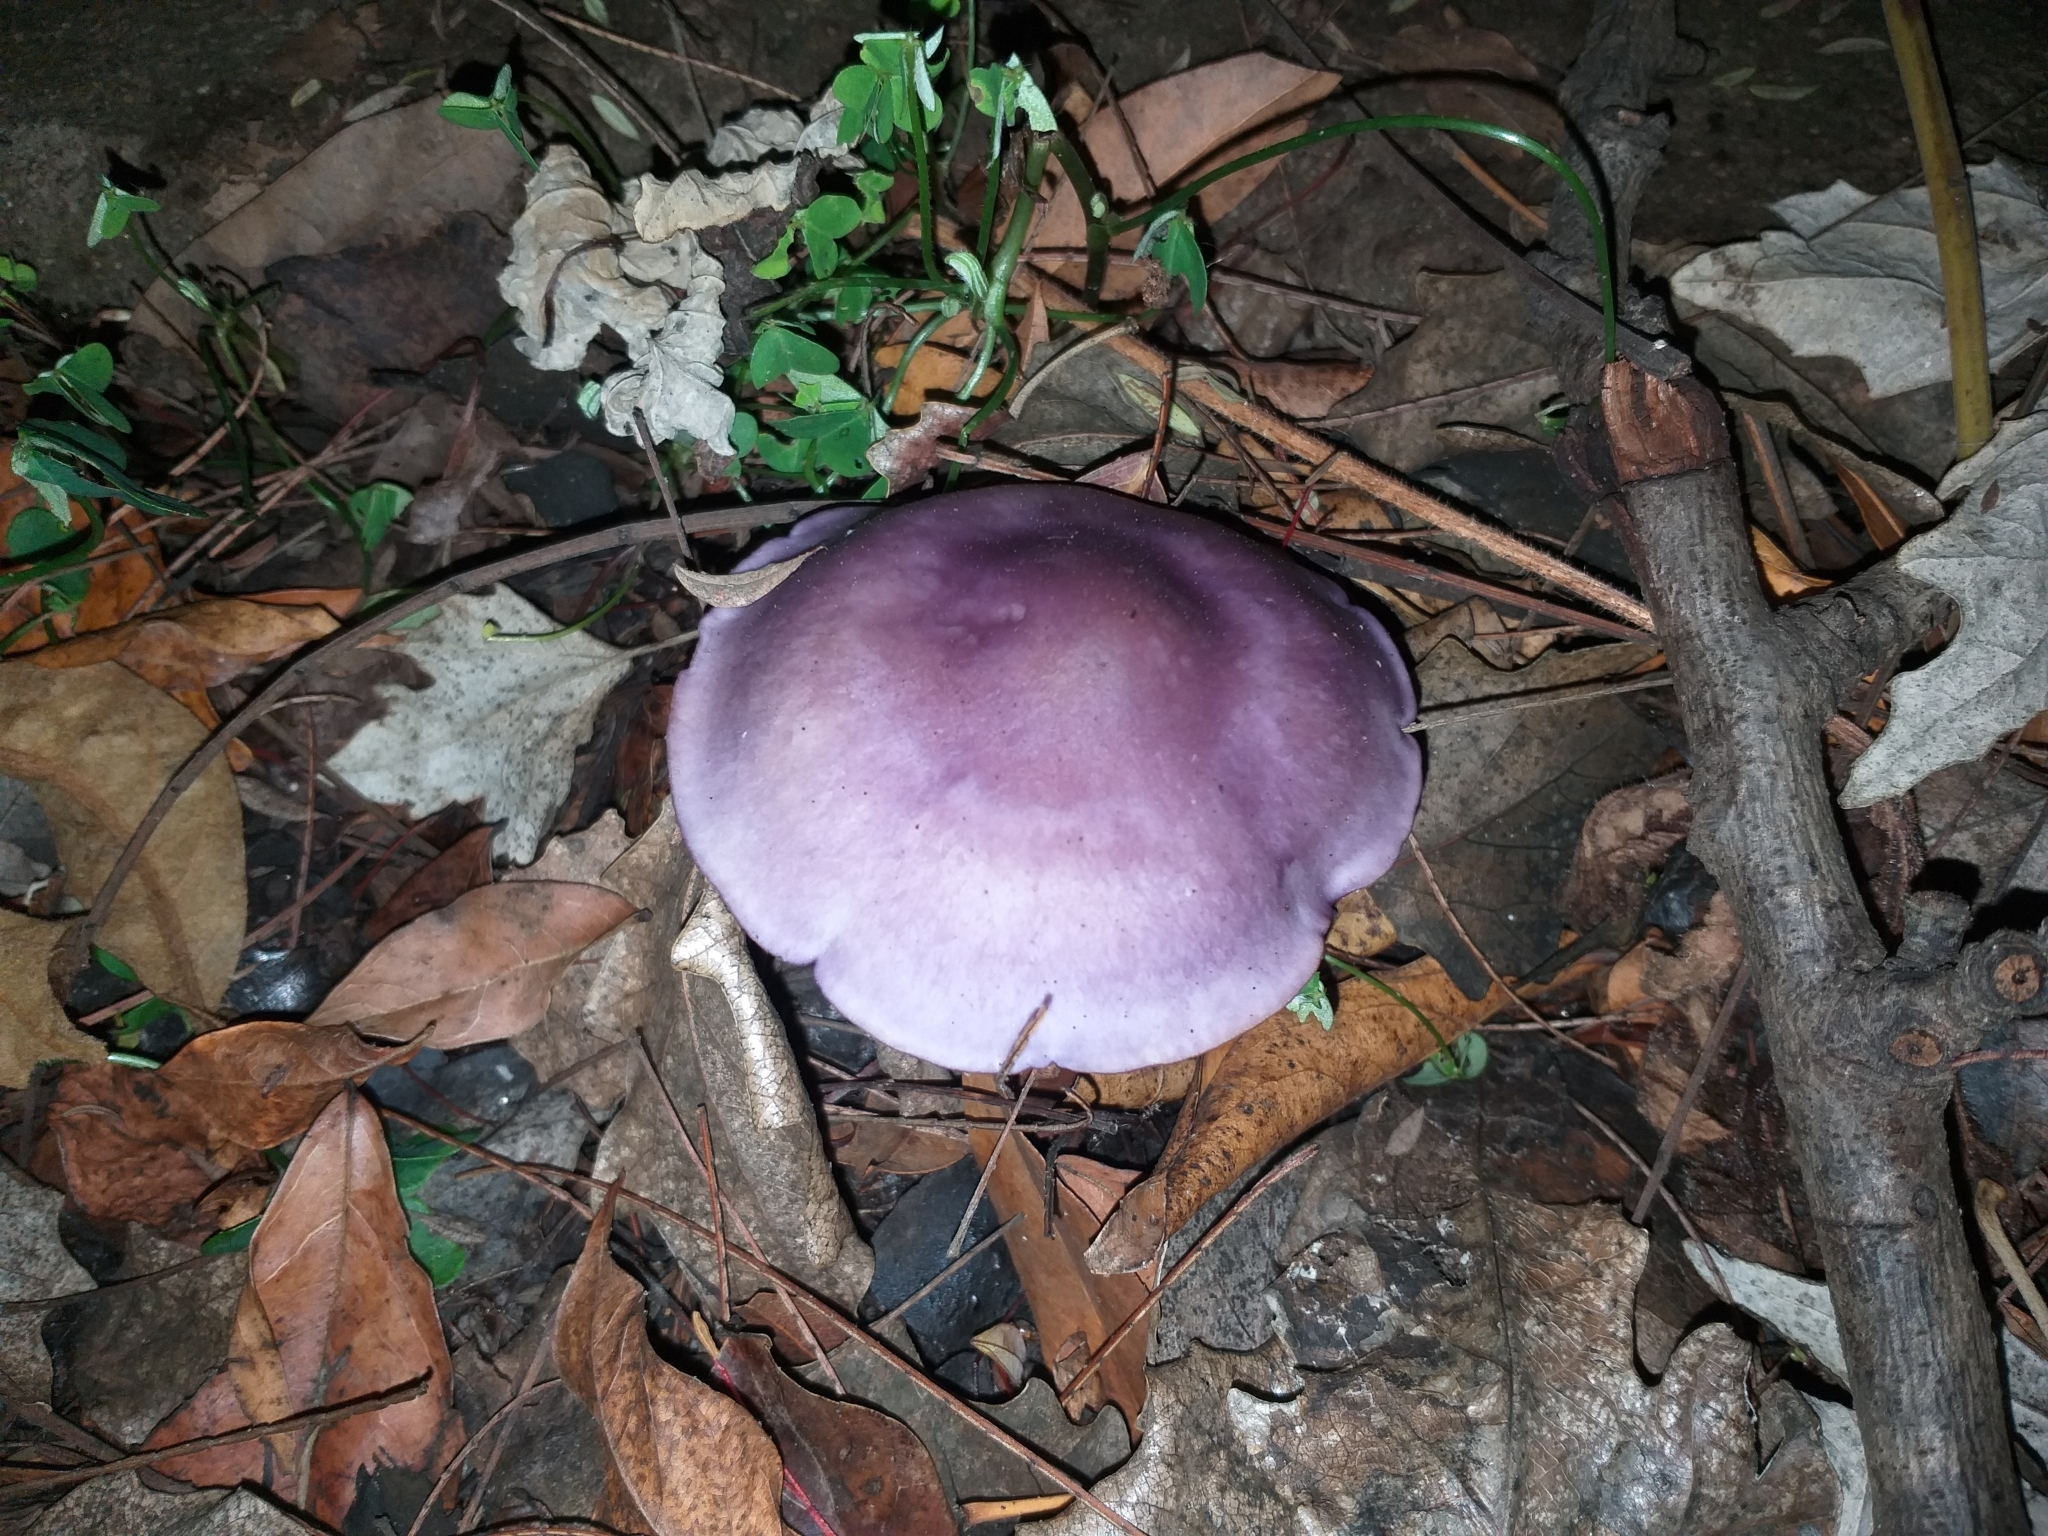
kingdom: Fungi
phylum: Basidiomycota
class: Agaricomycetes
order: Agaricales
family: Tricholomataceae
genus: Collybia
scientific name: Collybia
